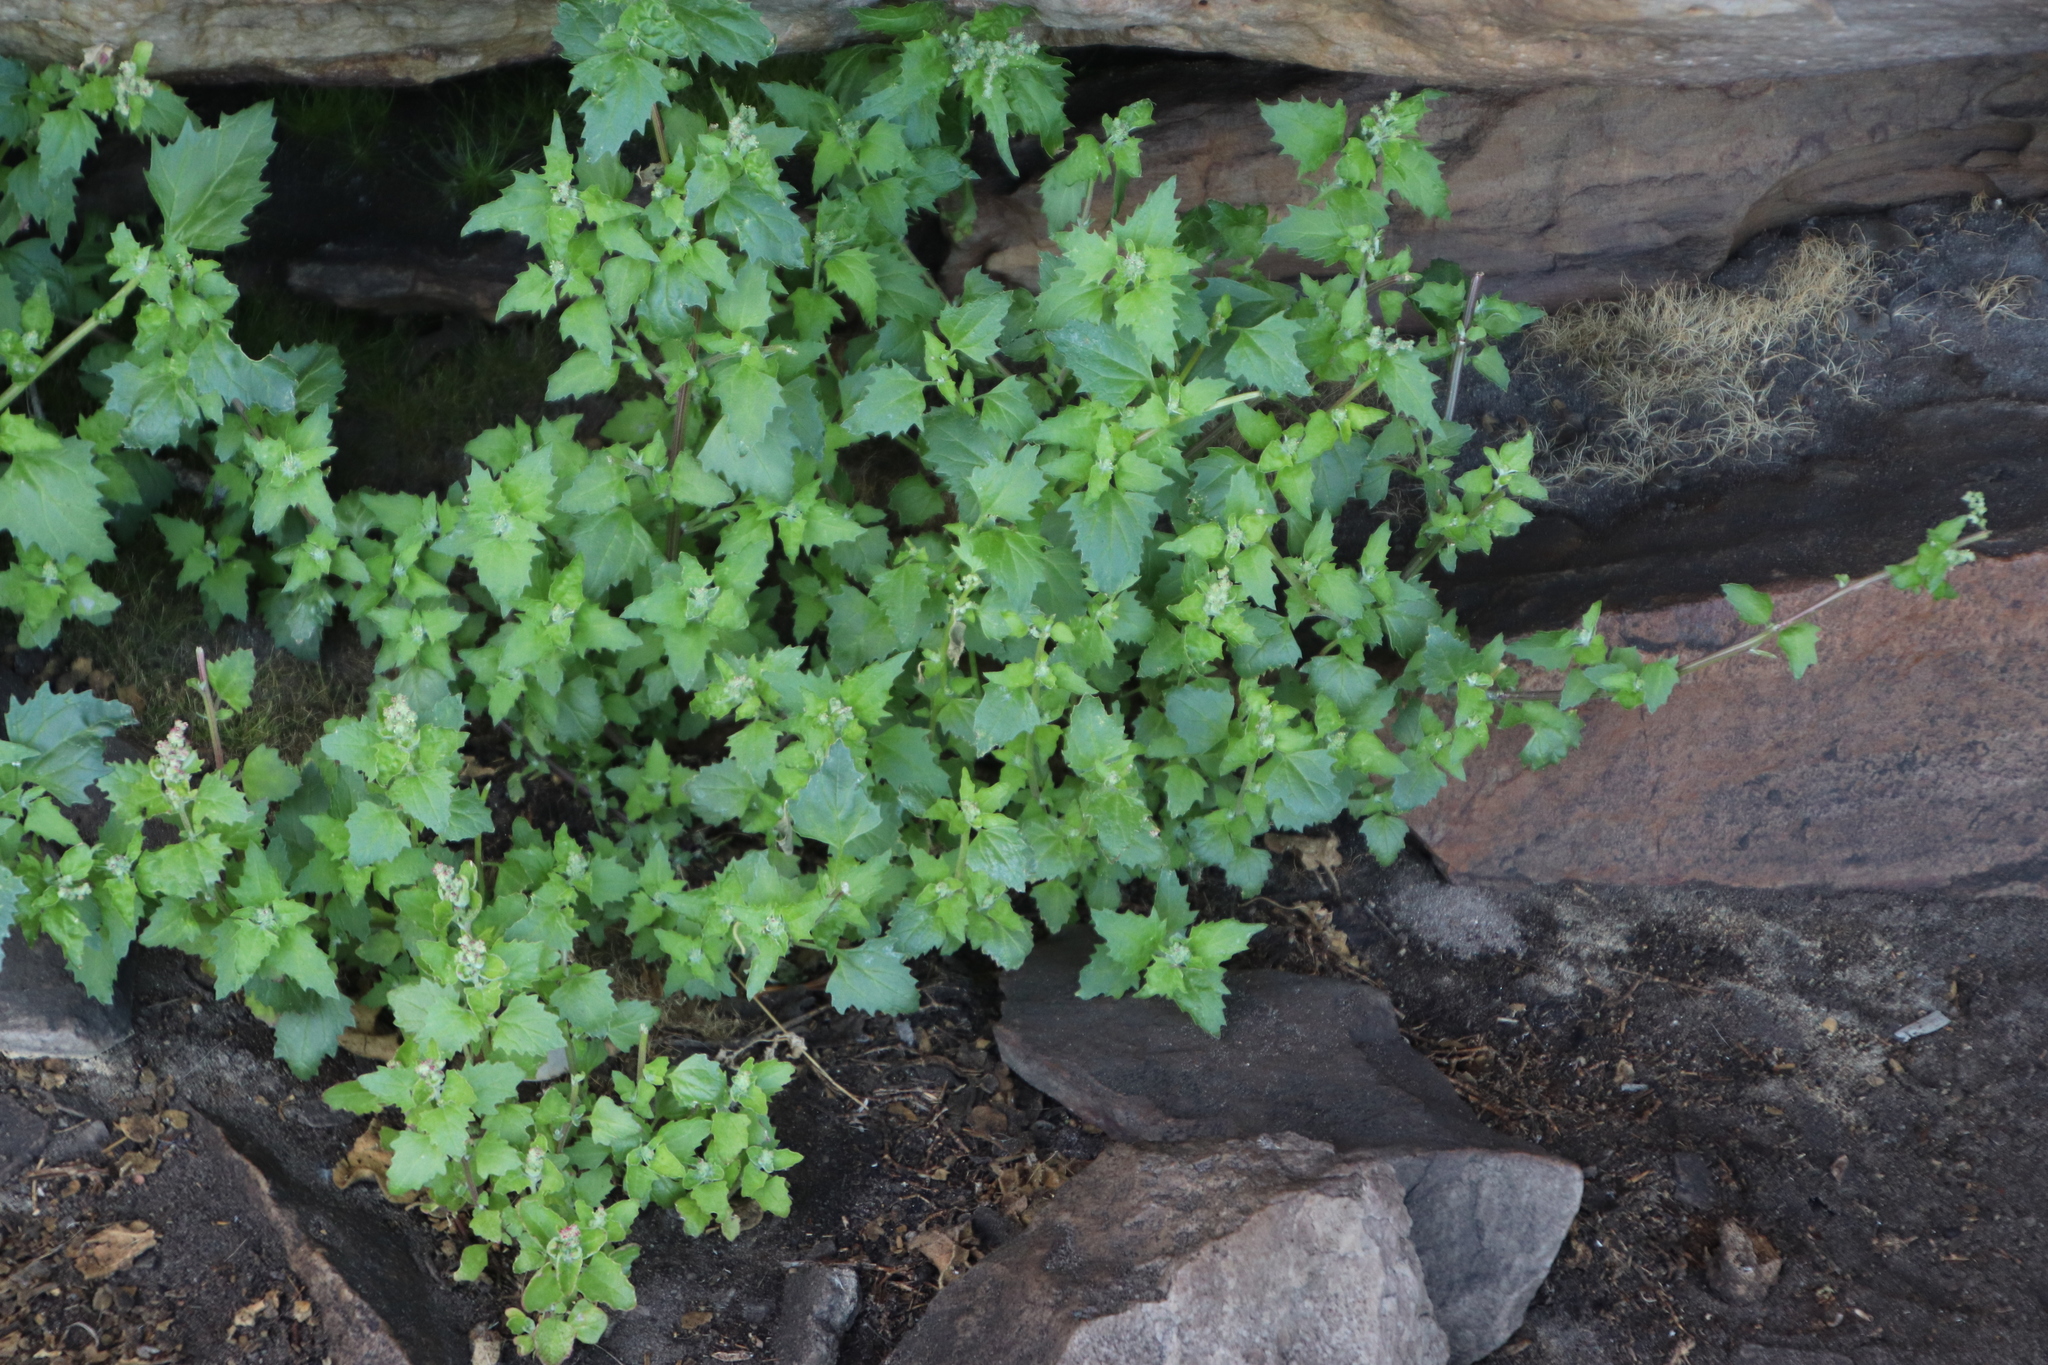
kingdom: Plantae
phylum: Tracheophyta
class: Magnoliopsida
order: Caryophyllales
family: Amaranthaceae
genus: Chenopodiastrum
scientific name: Chenopodiastrum murale
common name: Sowbane
